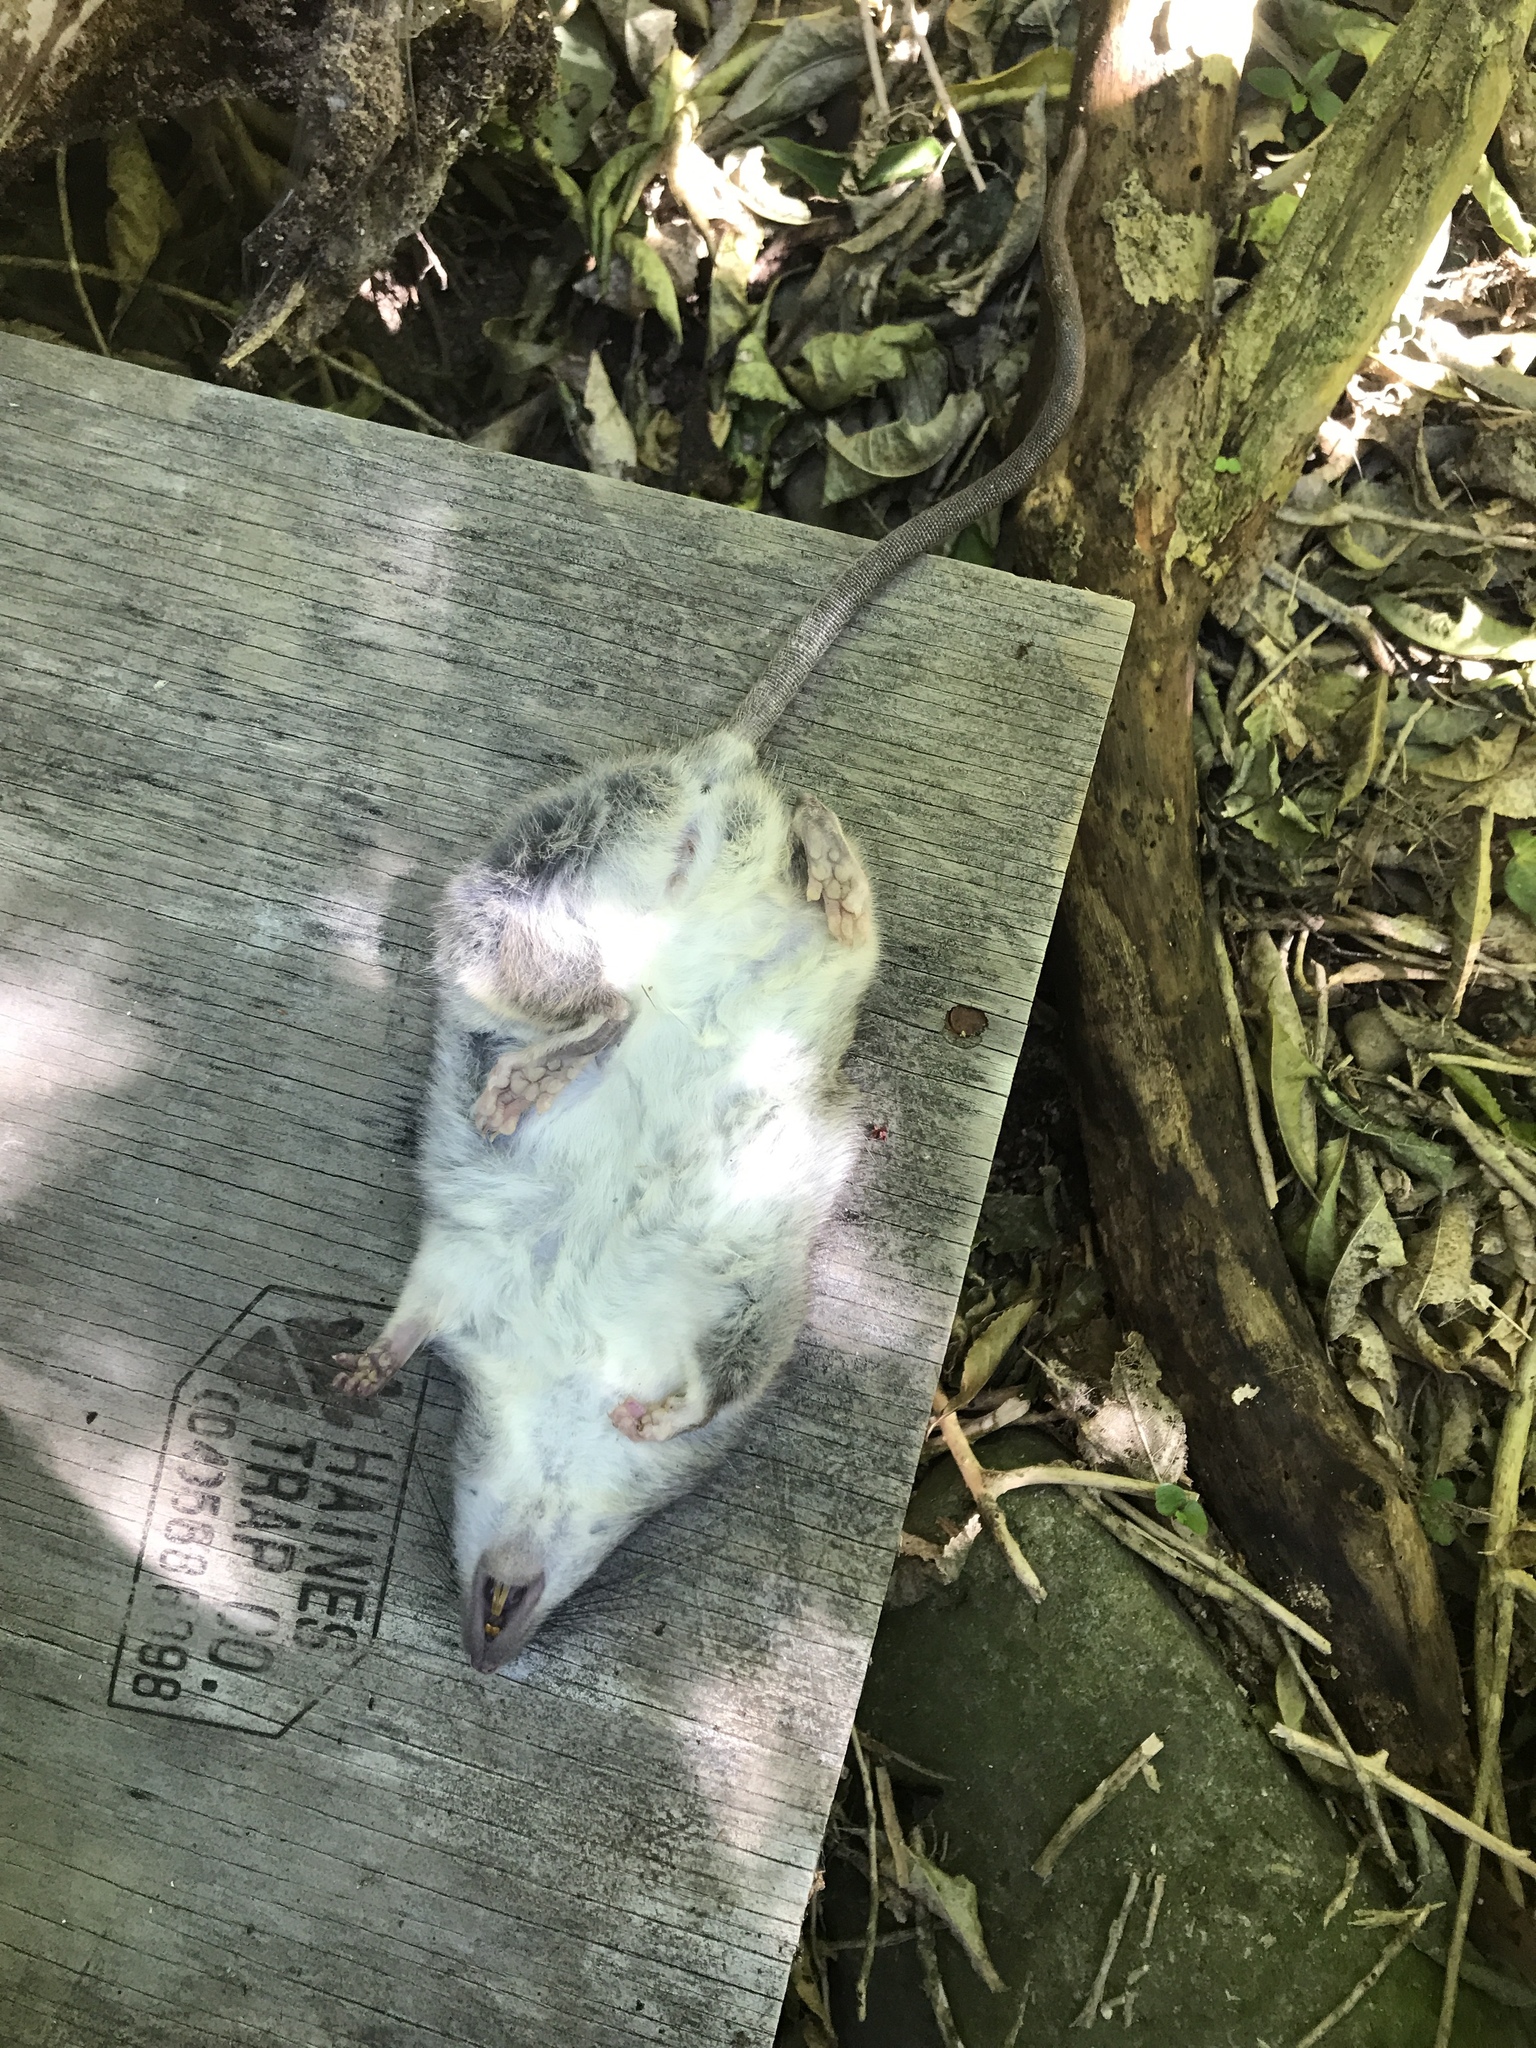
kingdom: Animalia
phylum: Chordata
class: Mammalia
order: Rodentia
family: Muridae
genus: Rattus
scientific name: Rattus rattus
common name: Black rat
